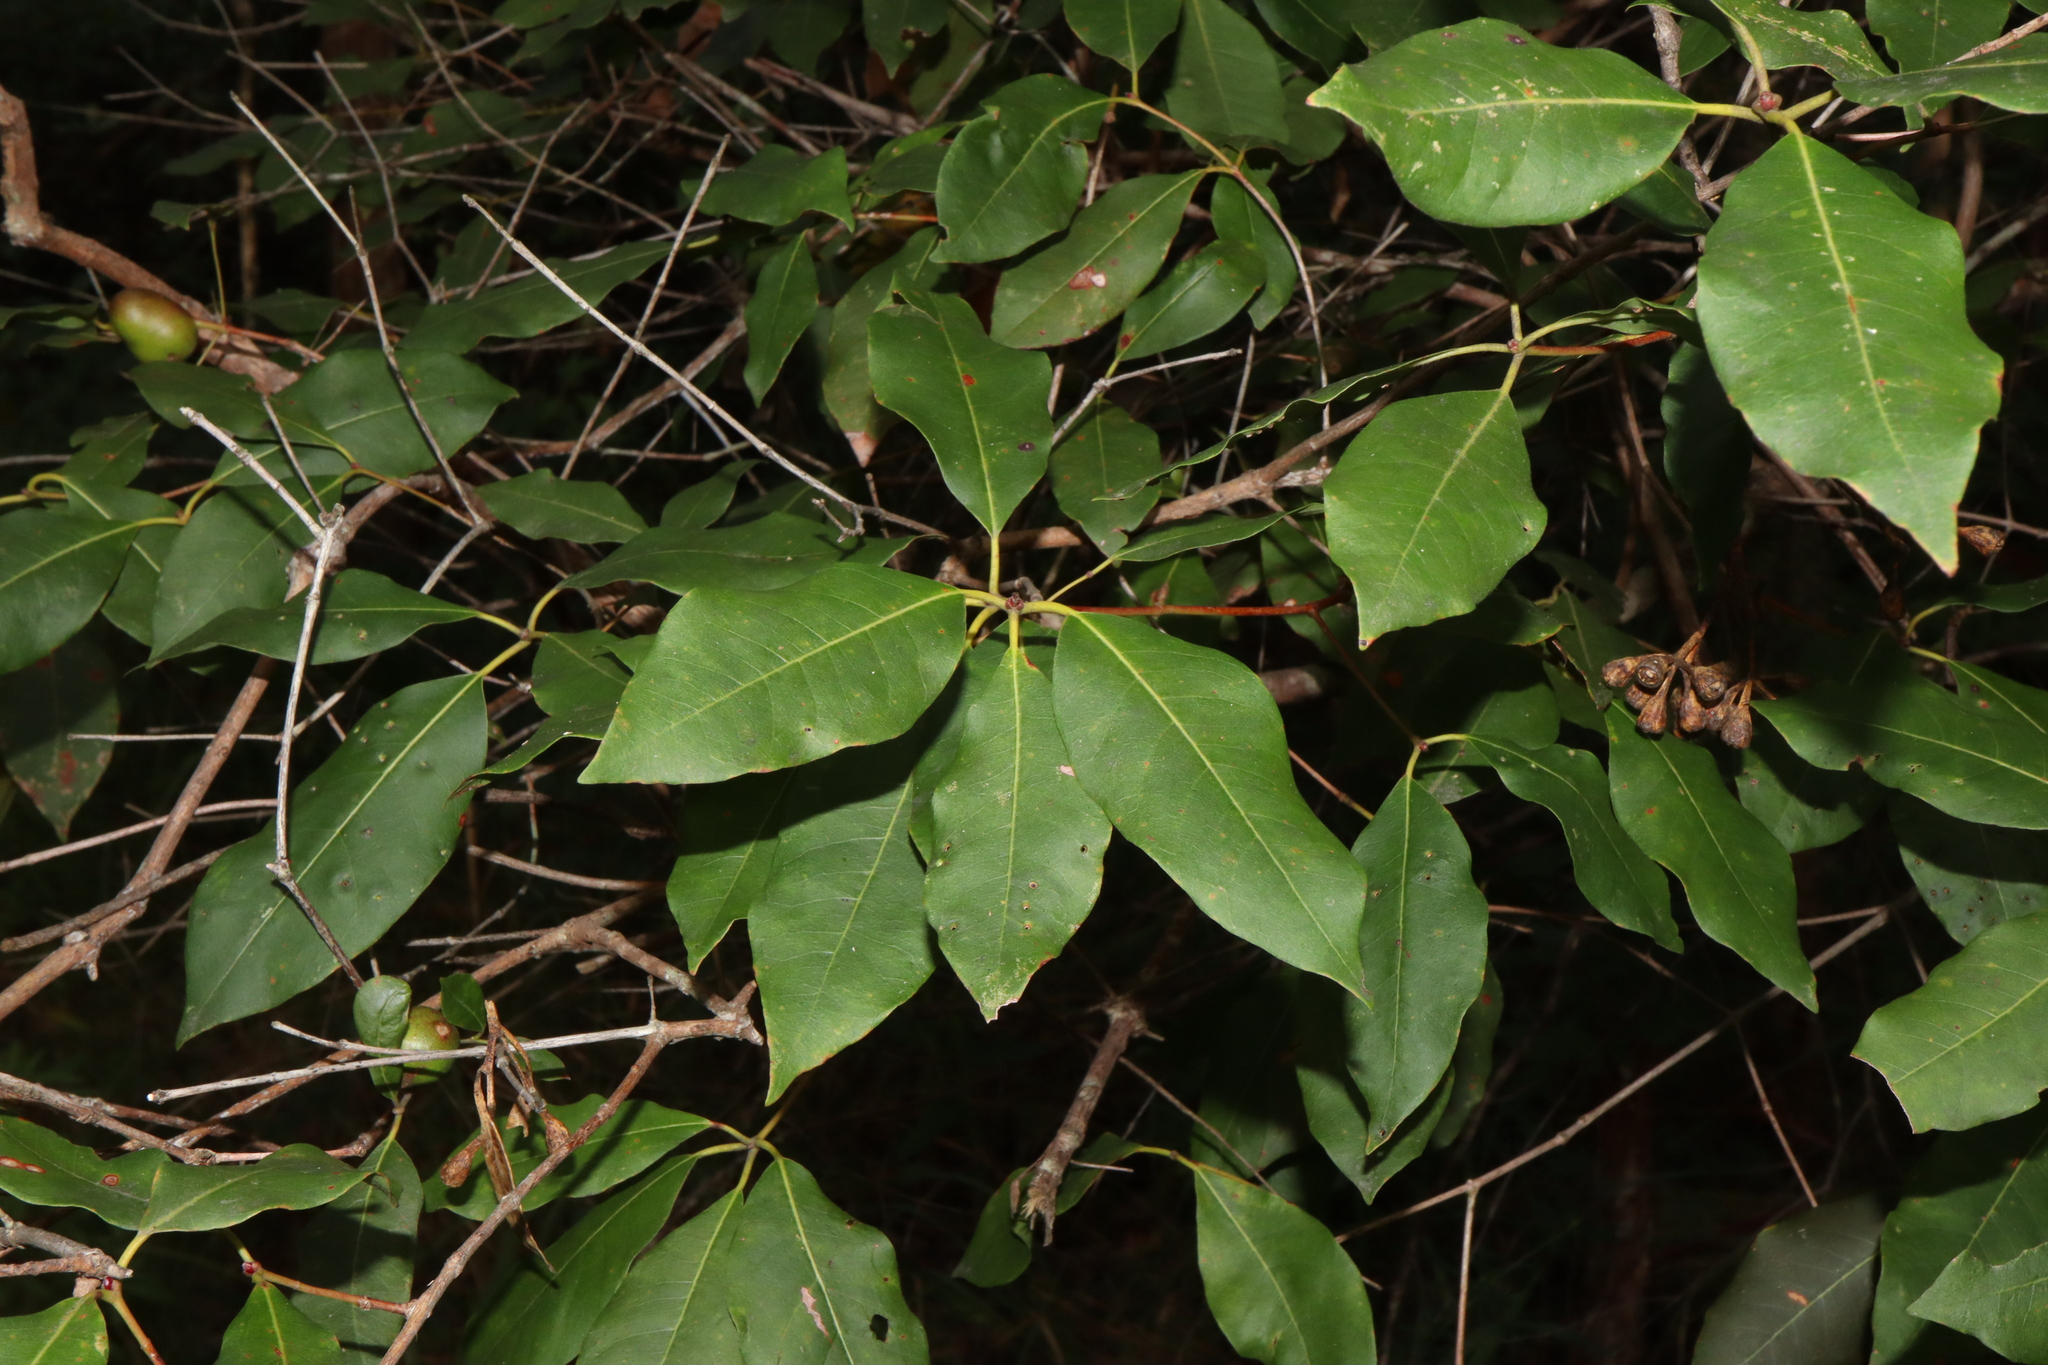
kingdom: Plantae
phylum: Tracheophyta
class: Magnoliopsida
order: Myrtales
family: Myrtaceae
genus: Syncarpia
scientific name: Syncarpia glomulifera
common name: Turpentine tree
